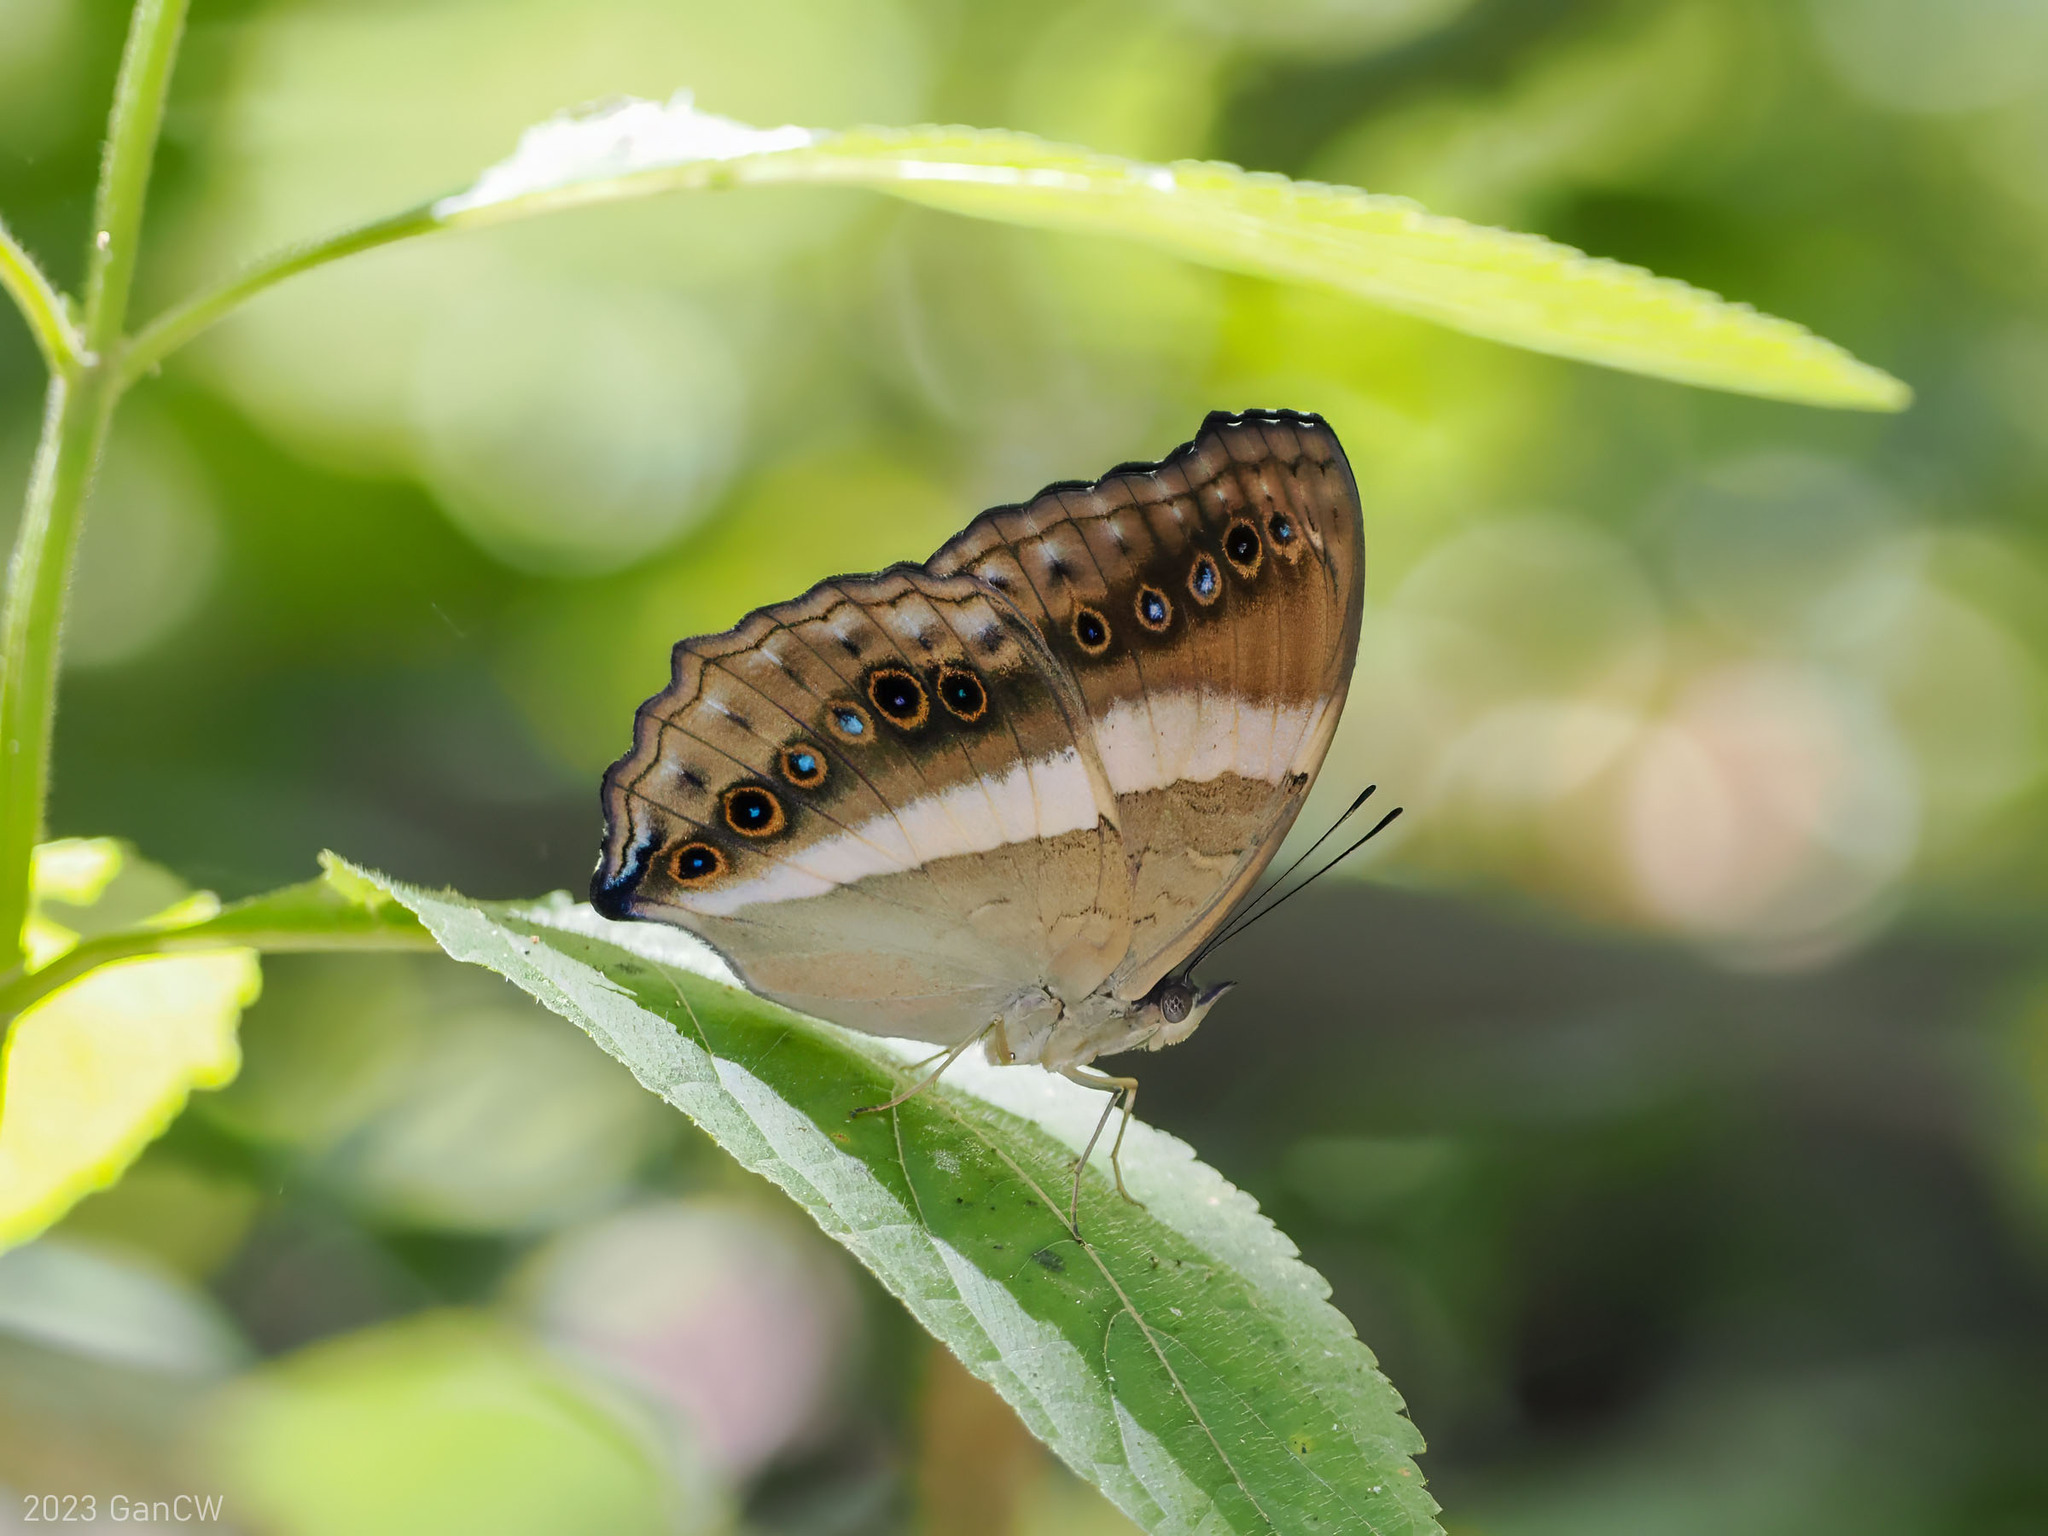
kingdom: Animalia
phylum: Arthropoda
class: Insecta
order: Lepidoptera
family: Nymphalidae
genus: Yoma
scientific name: Yoma algina
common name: New guinea lurcher
